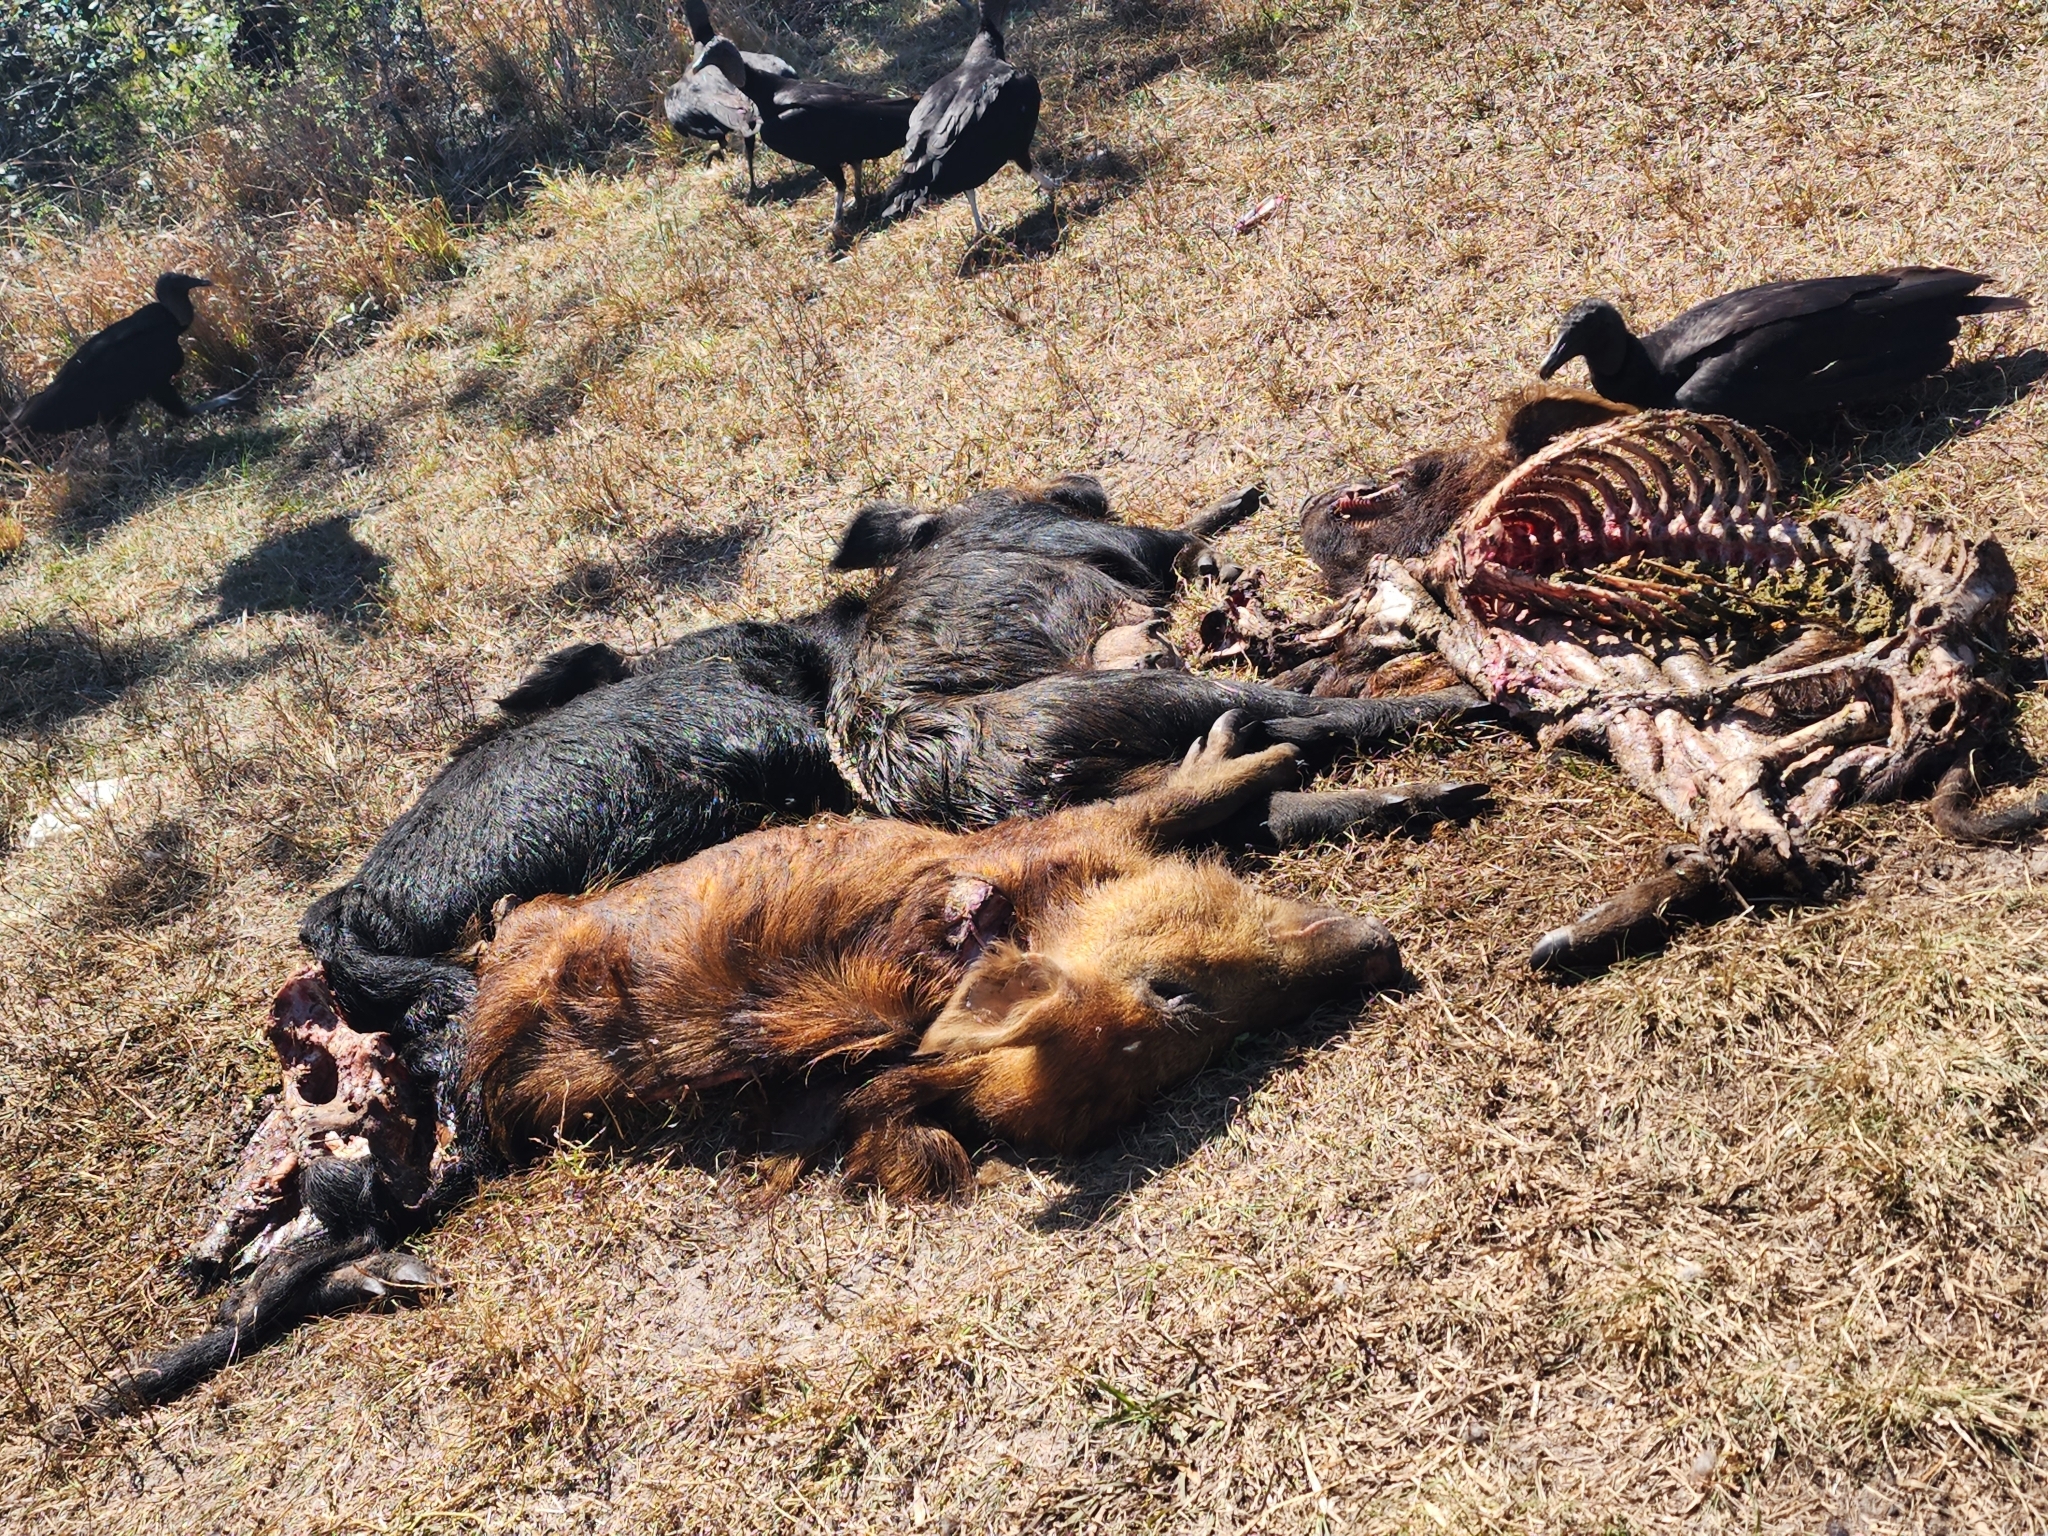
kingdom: Animalia
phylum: Chordata
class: Mammalia
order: Artiodactyla
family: Suidae
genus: Sus
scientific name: Sus scrofa
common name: Wild boar
